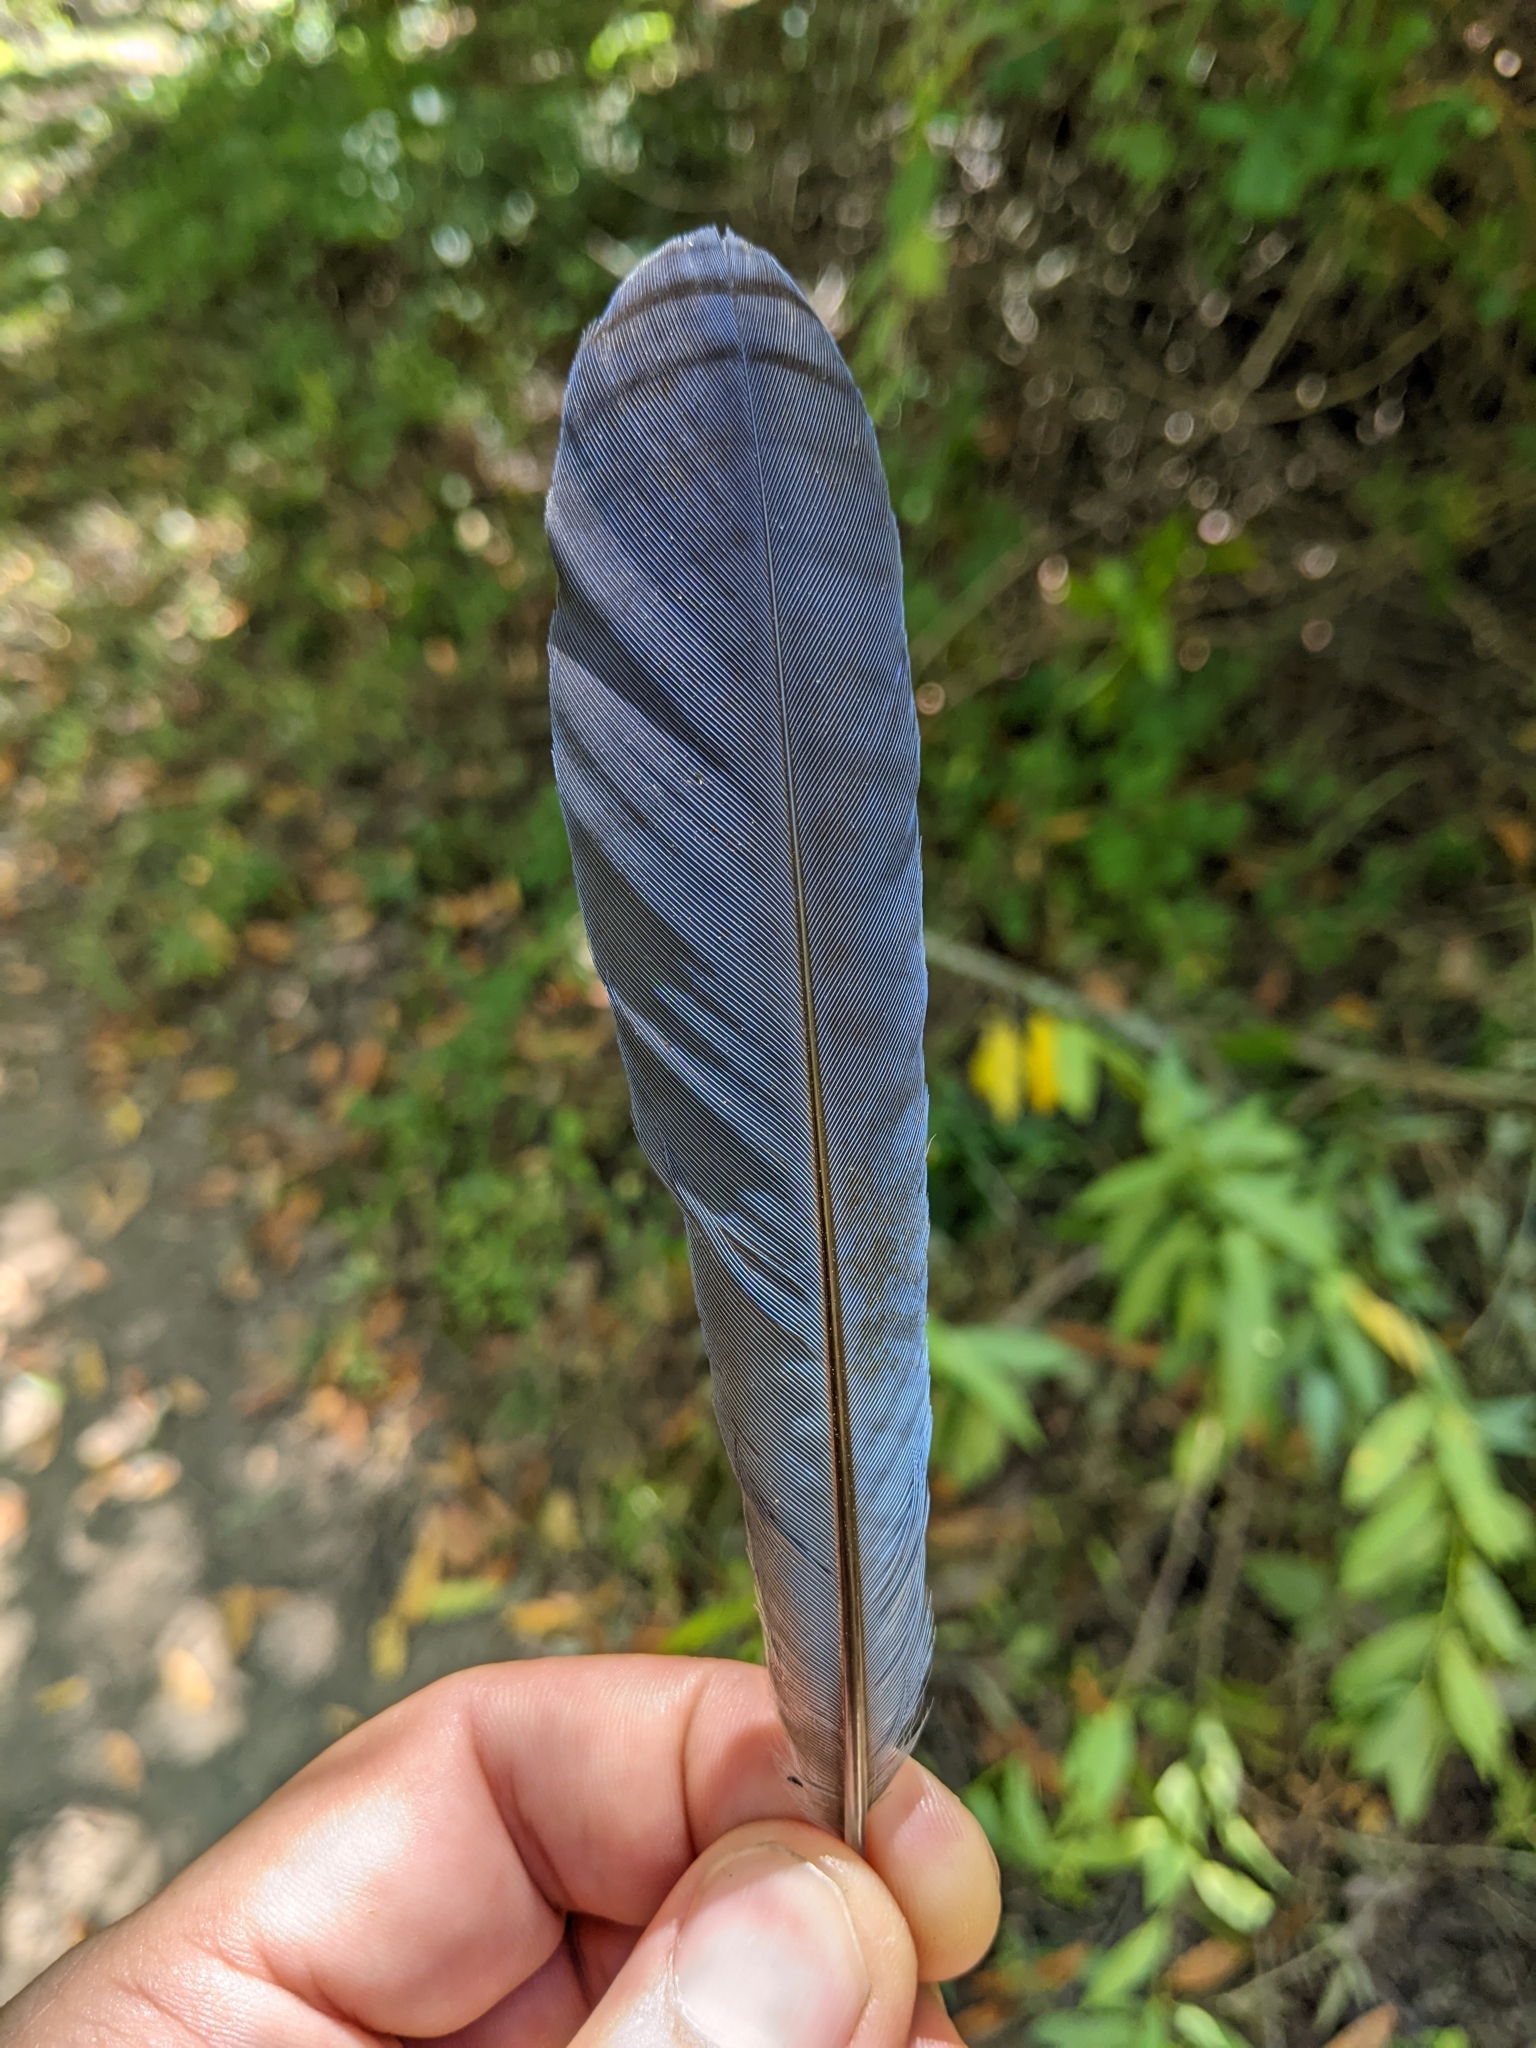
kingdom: Animalia
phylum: Chordata
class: Aves
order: Passeriformes
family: Corvidae
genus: Cyanocitta
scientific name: Cyanocitta stelleri
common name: Steller's jay
